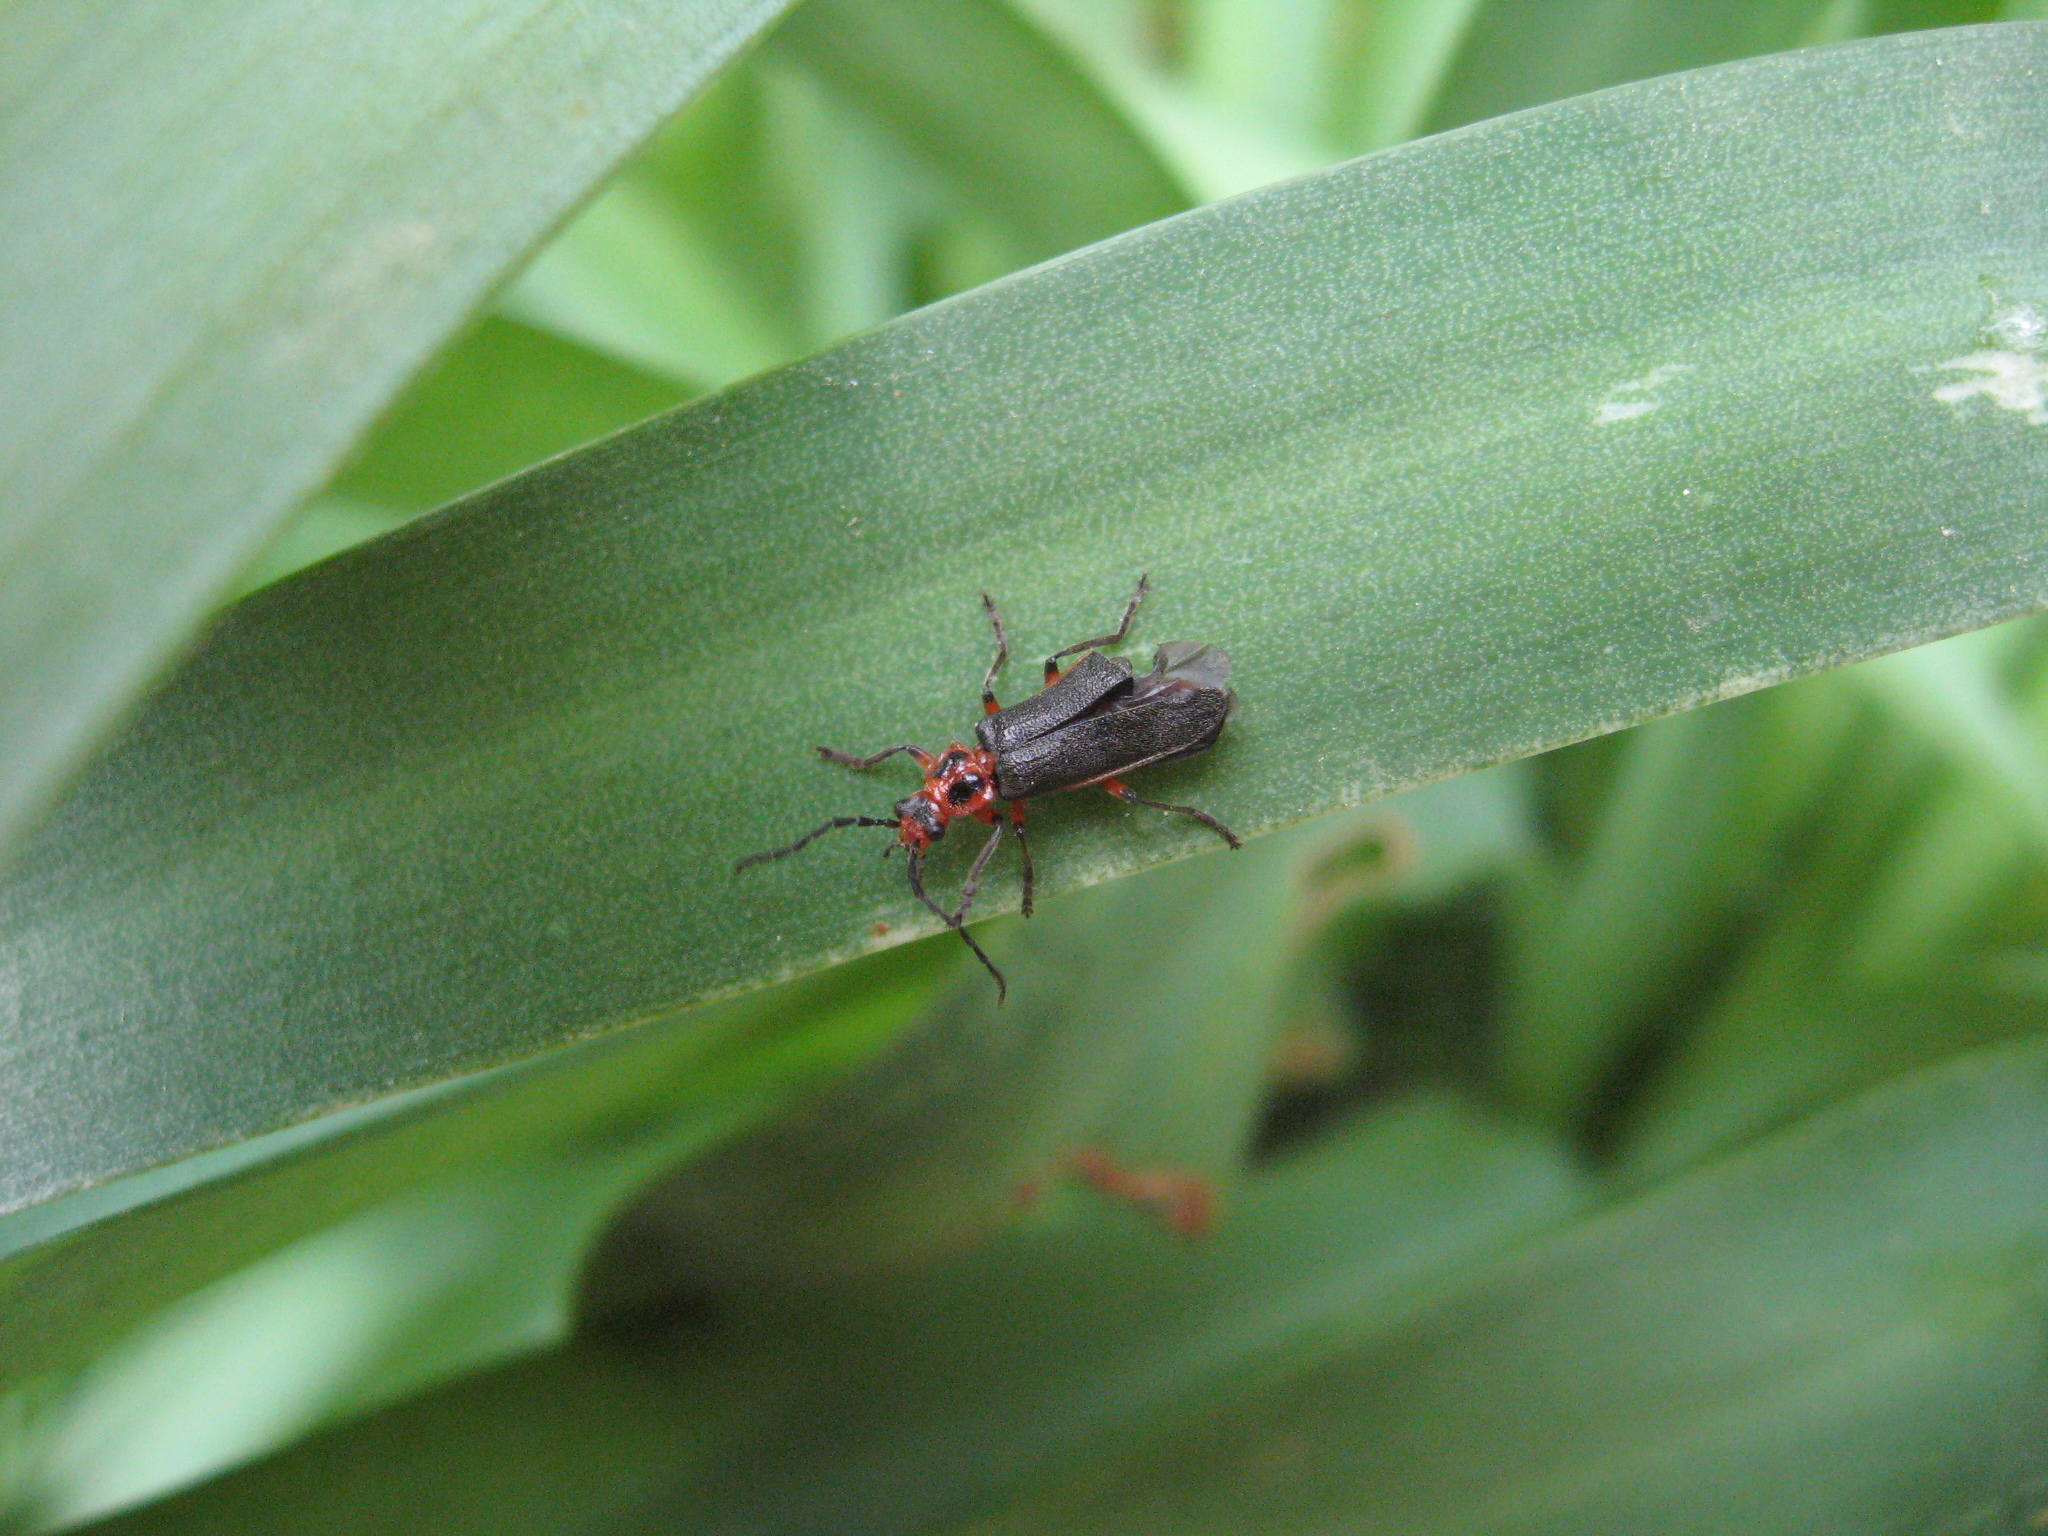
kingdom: Animalia
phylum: Arthropoda
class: Insecta
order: Coleoptera
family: Cantharidae
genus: Atalantycha
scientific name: Atalantycha bilineata
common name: Two-lined leatherwing
